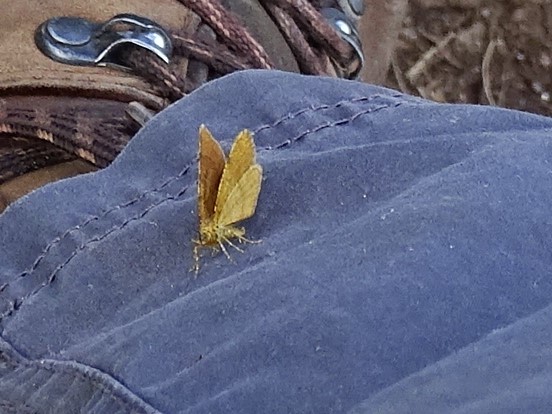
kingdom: Animalia
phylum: Arthropoda
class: Insecta
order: Lepidoptera
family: Geometridae
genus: Macaria
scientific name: Macaria brunneata
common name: Rannoch looper
